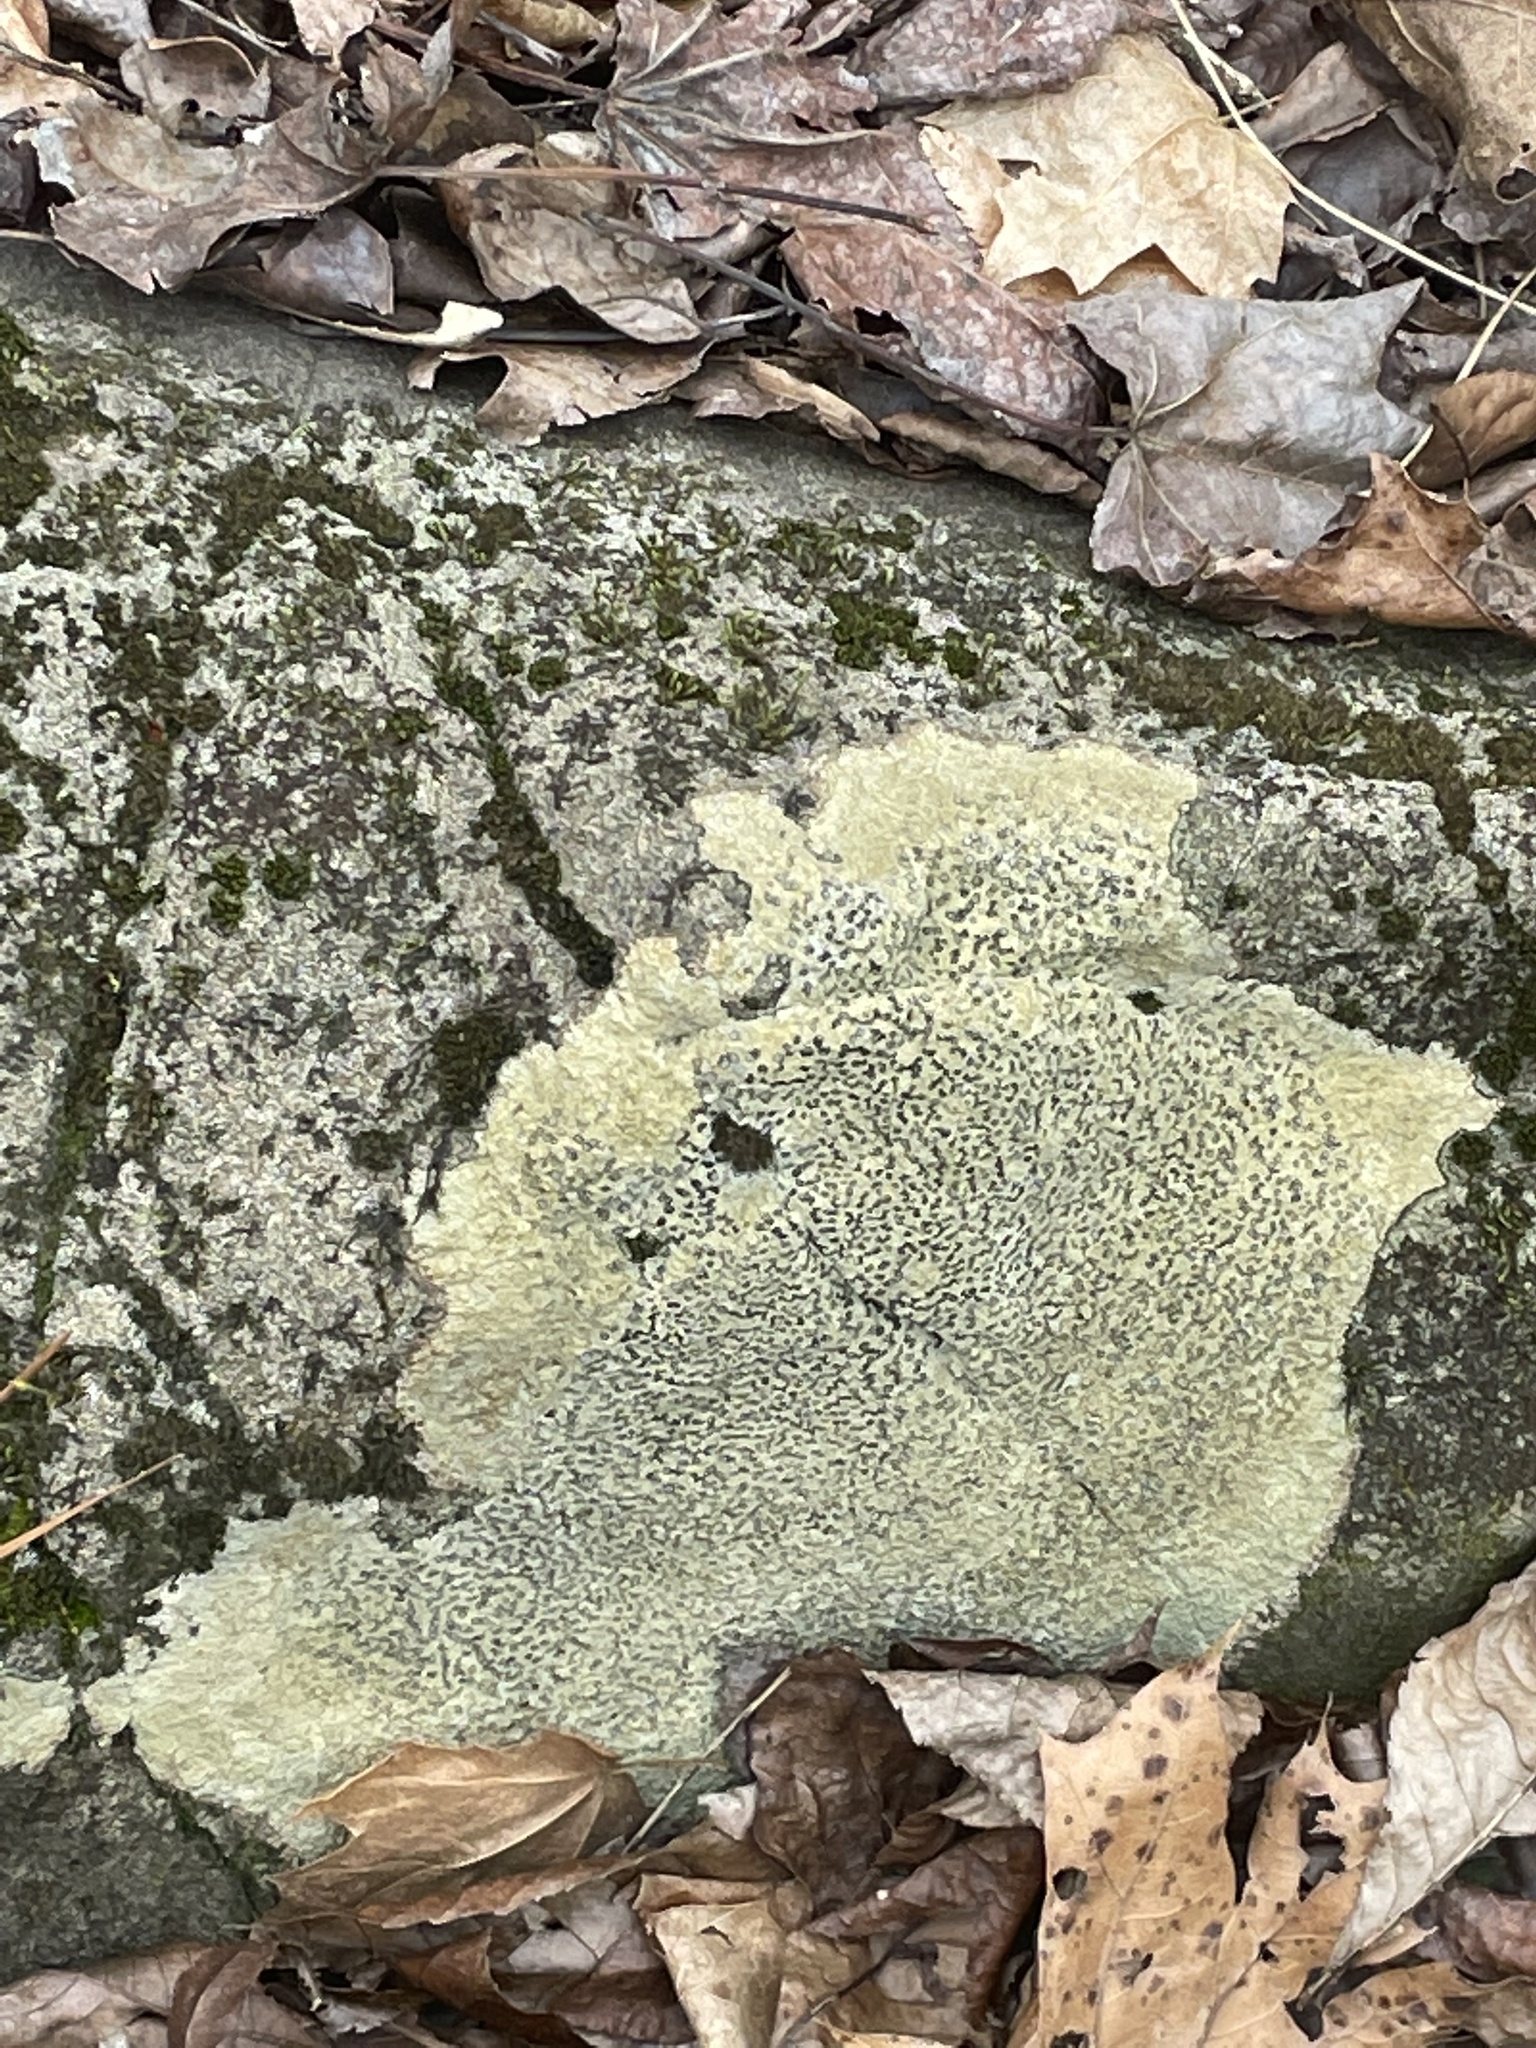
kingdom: Fungi
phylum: Ascomycota
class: Lecanoromycetes
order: Lecideales
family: Lecideaceae
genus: Porpidia
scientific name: Porpidia albocaerulescens
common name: Smokey-eyed boulder lichen
